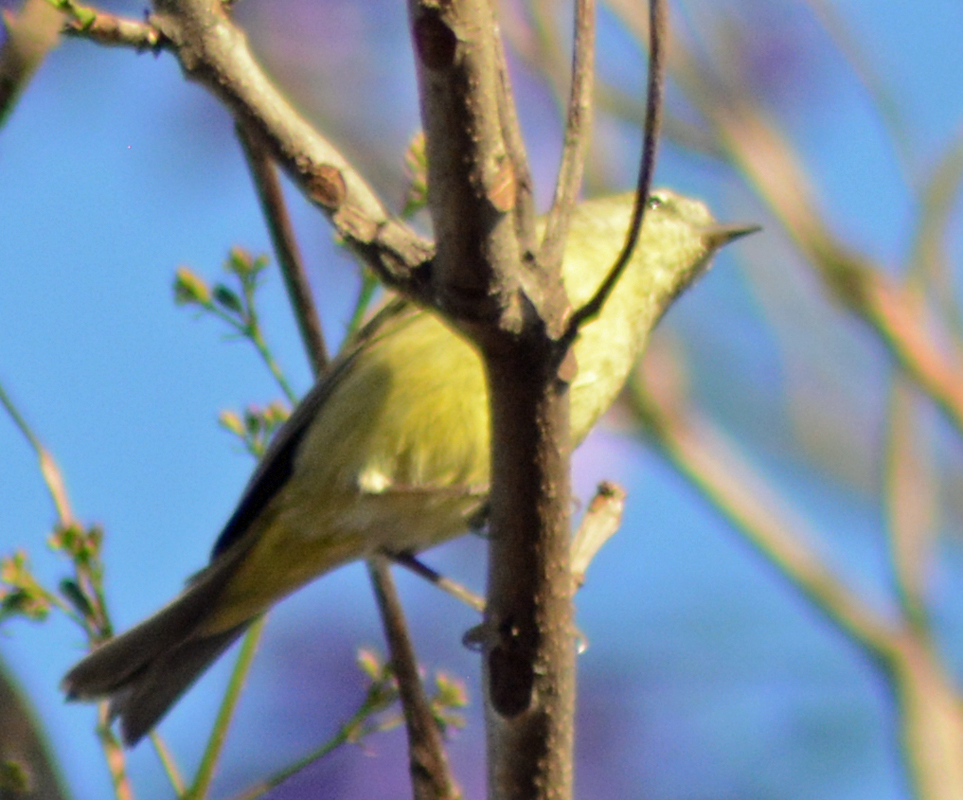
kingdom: Animalia
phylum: Chordata
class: Aves
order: Passeriformes
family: Parulidae
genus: Leiothlypis
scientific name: Leiothlypis celata
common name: Orange-crowned warbler
